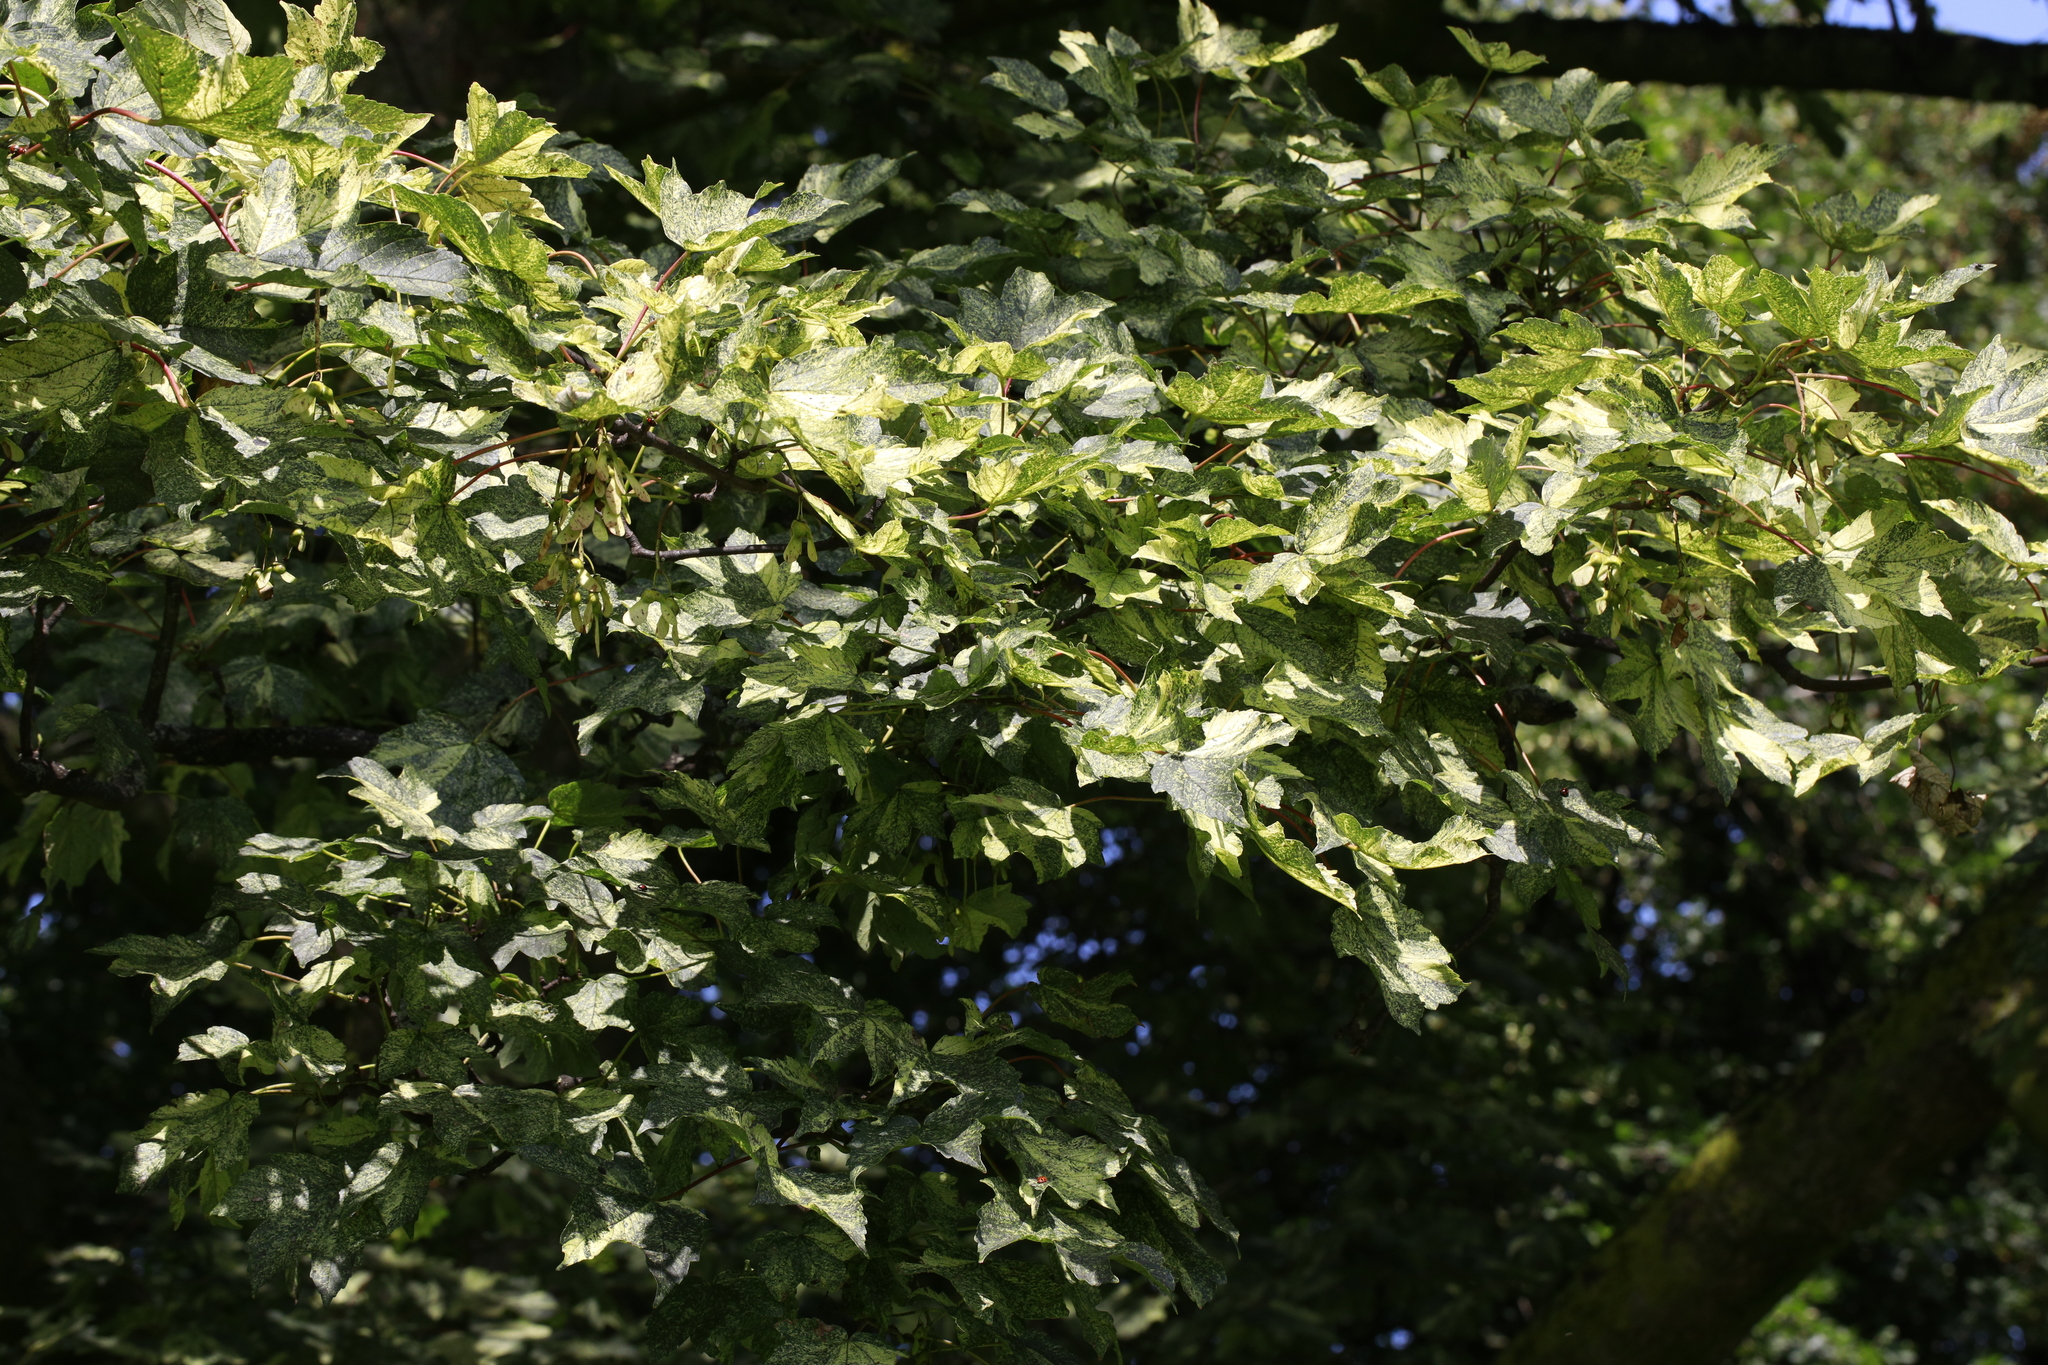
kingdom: Plantae
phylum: Tracheophyta
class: Magnoliopsida
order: Sapindales
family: Sapindaceae
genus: Acer
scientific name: Acer pseudoplatanus
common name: Sycamore
